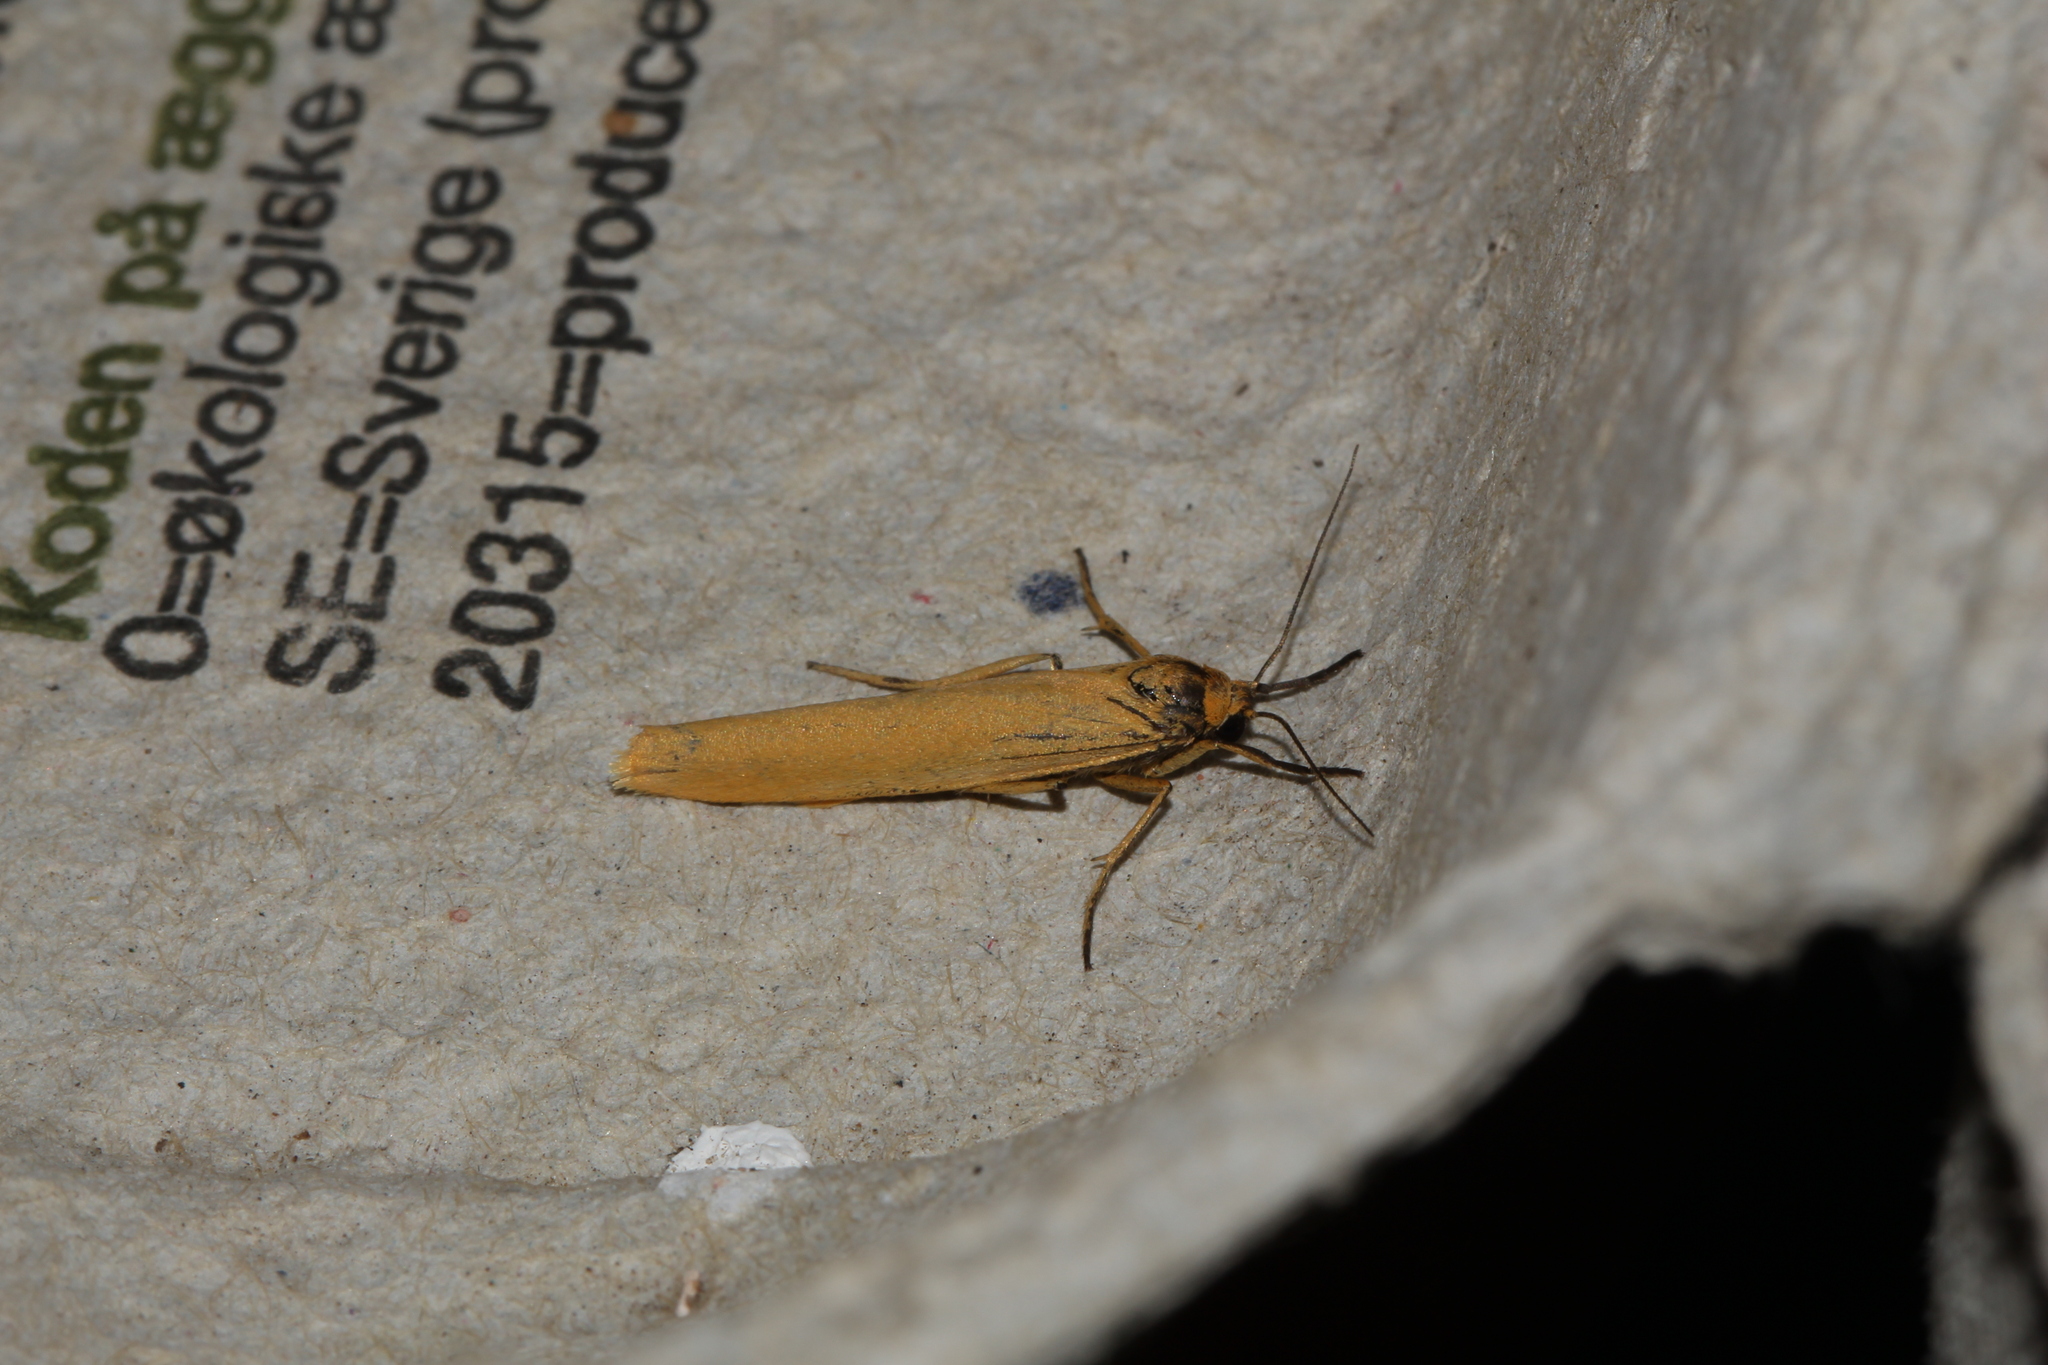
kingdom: Animalia
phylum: Arthropoda
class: Insecta
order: Lepidoptera
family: Erebidae
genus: Indalia
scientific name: Indalia lutarella
